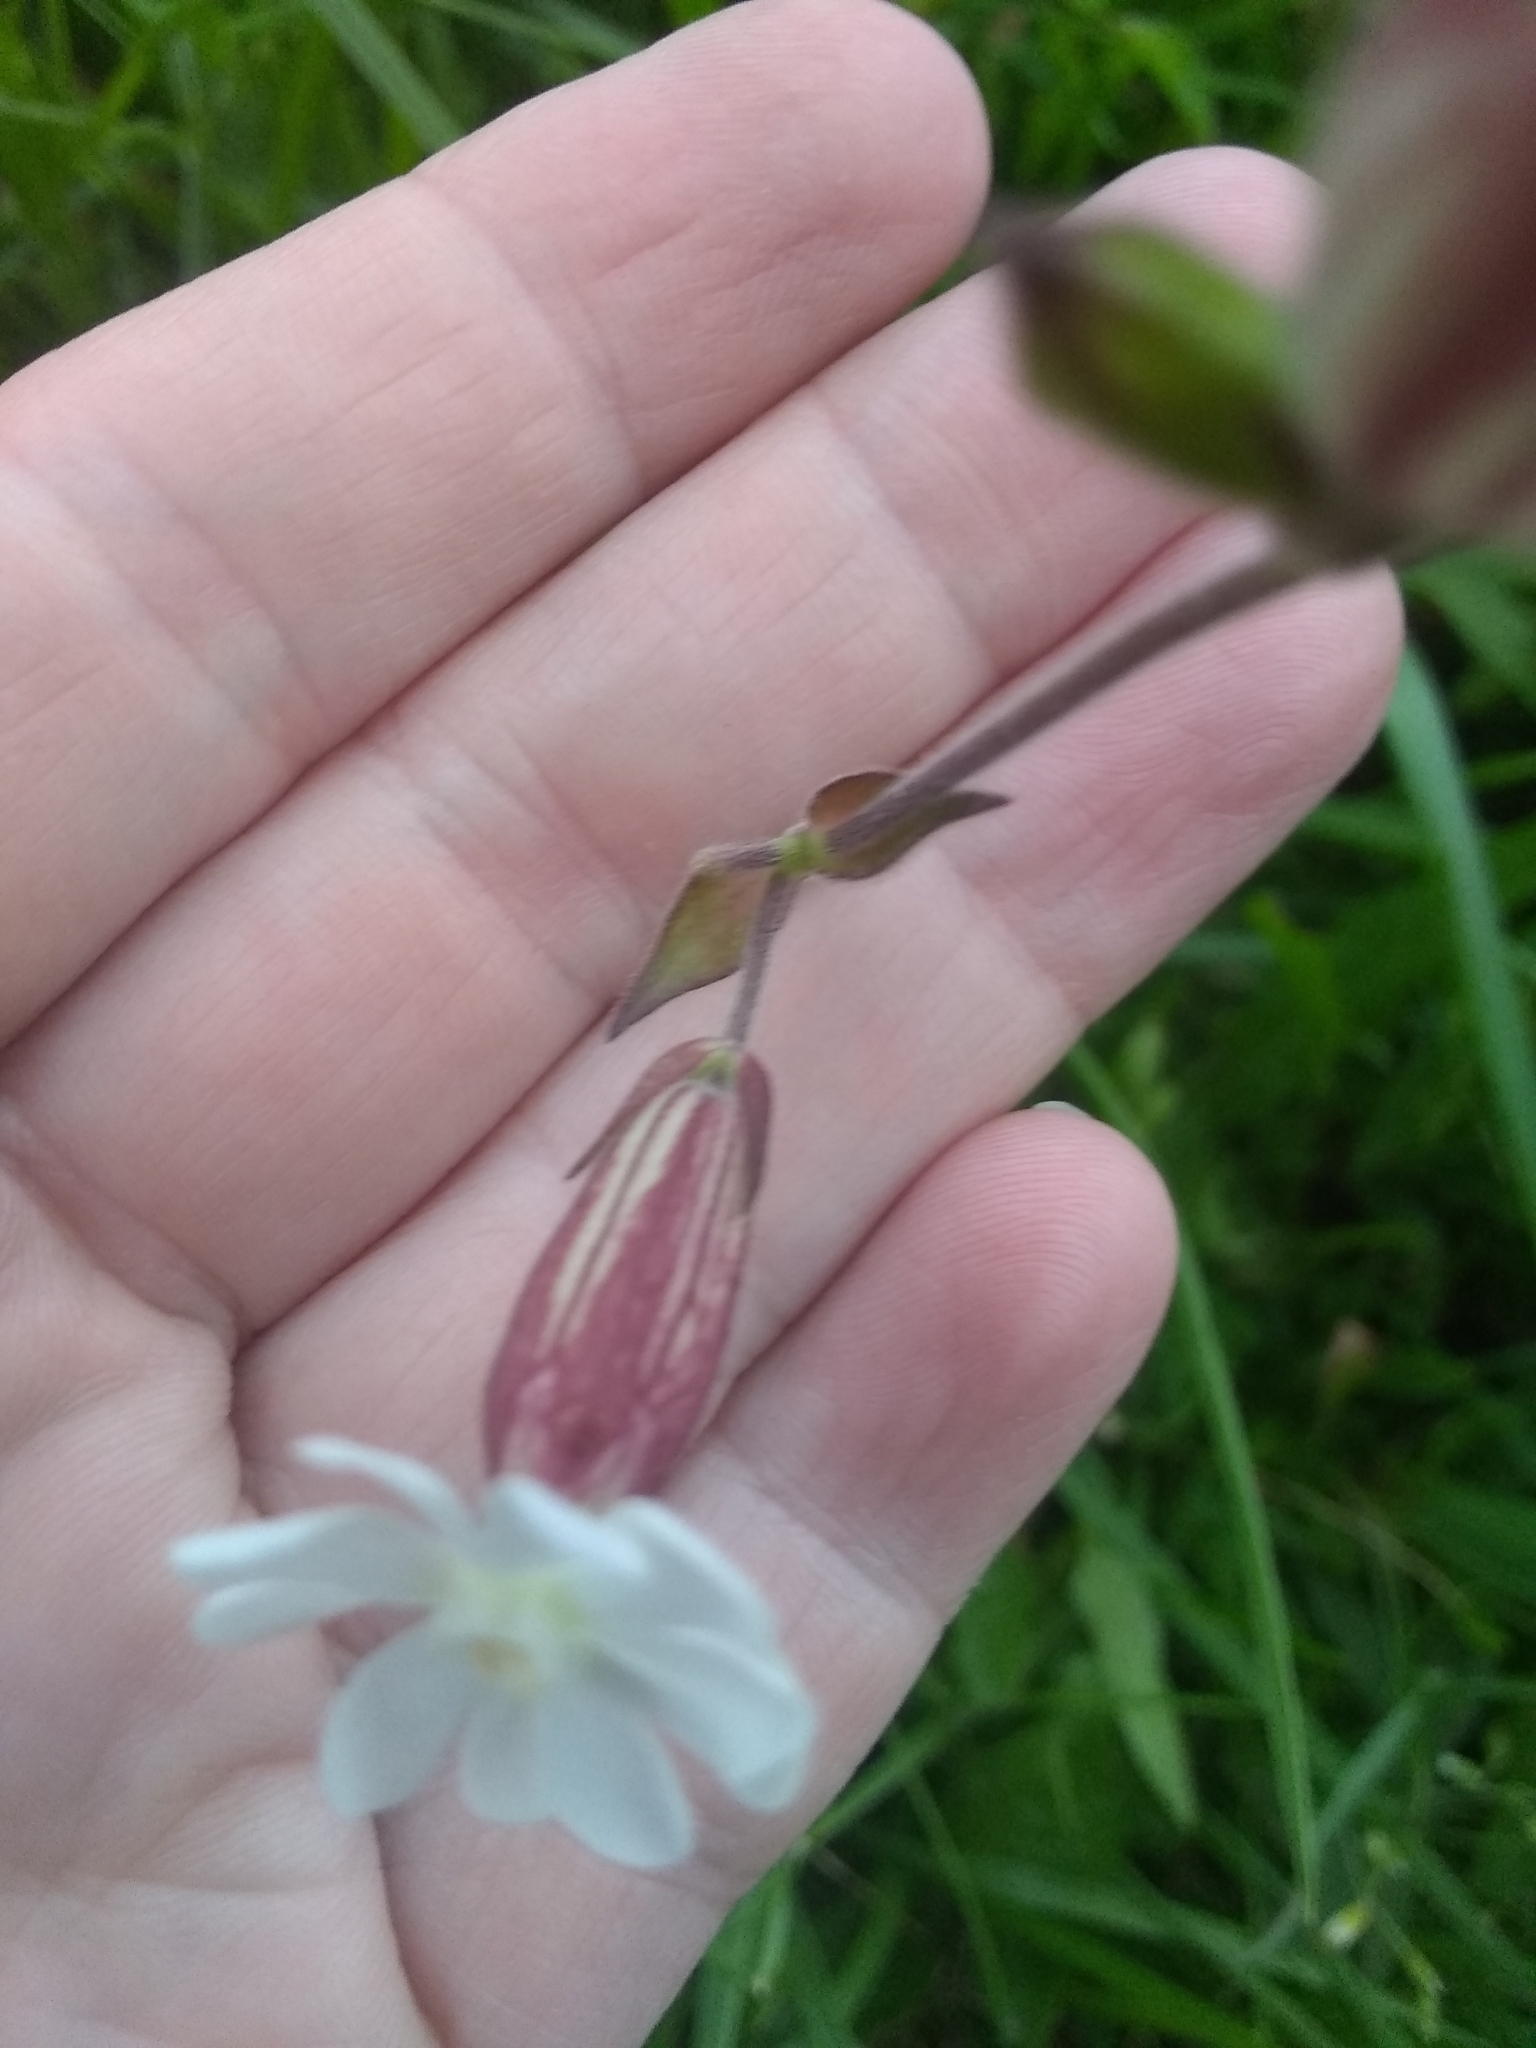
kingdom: Plantae
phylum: Tracheophyta
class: Magnoliopsida
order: Caryophyllales
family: Caryophyllaceae
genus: Silene
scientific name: Silene latifolia
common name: White campion
